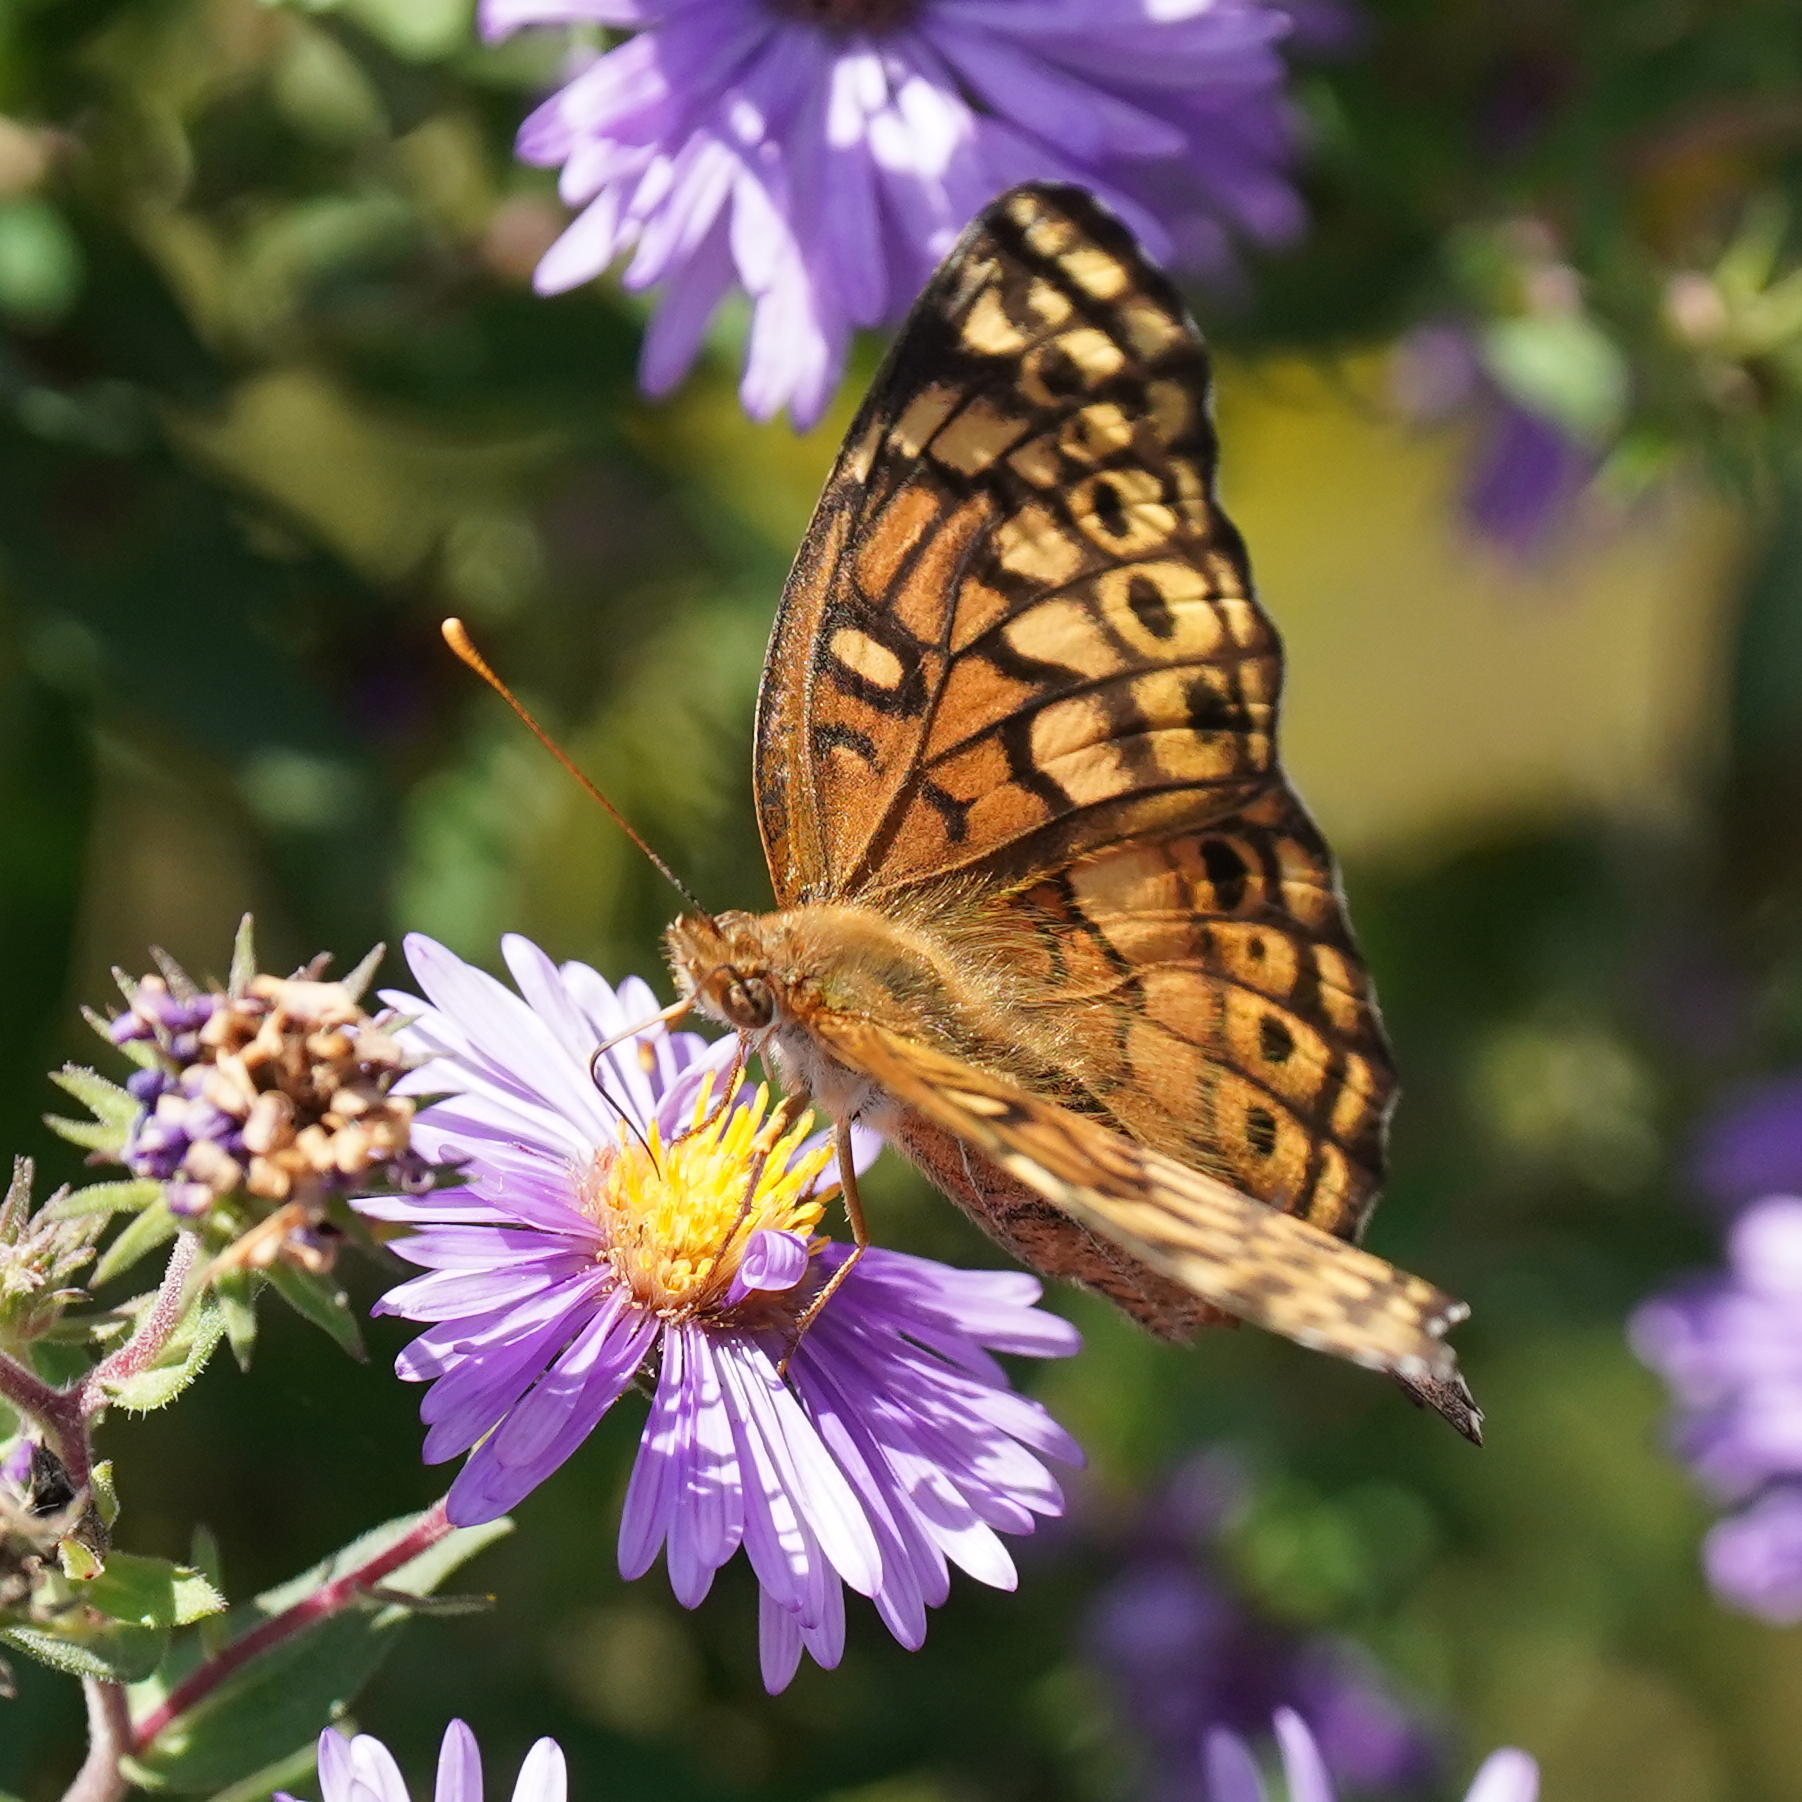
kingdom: Animalia
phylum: Arthropoda
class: Insecta
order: Lepidoptera
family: Nymphalidae
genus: Euptoieta
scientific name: Euptoieta claudia
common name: Variegated fritillary
